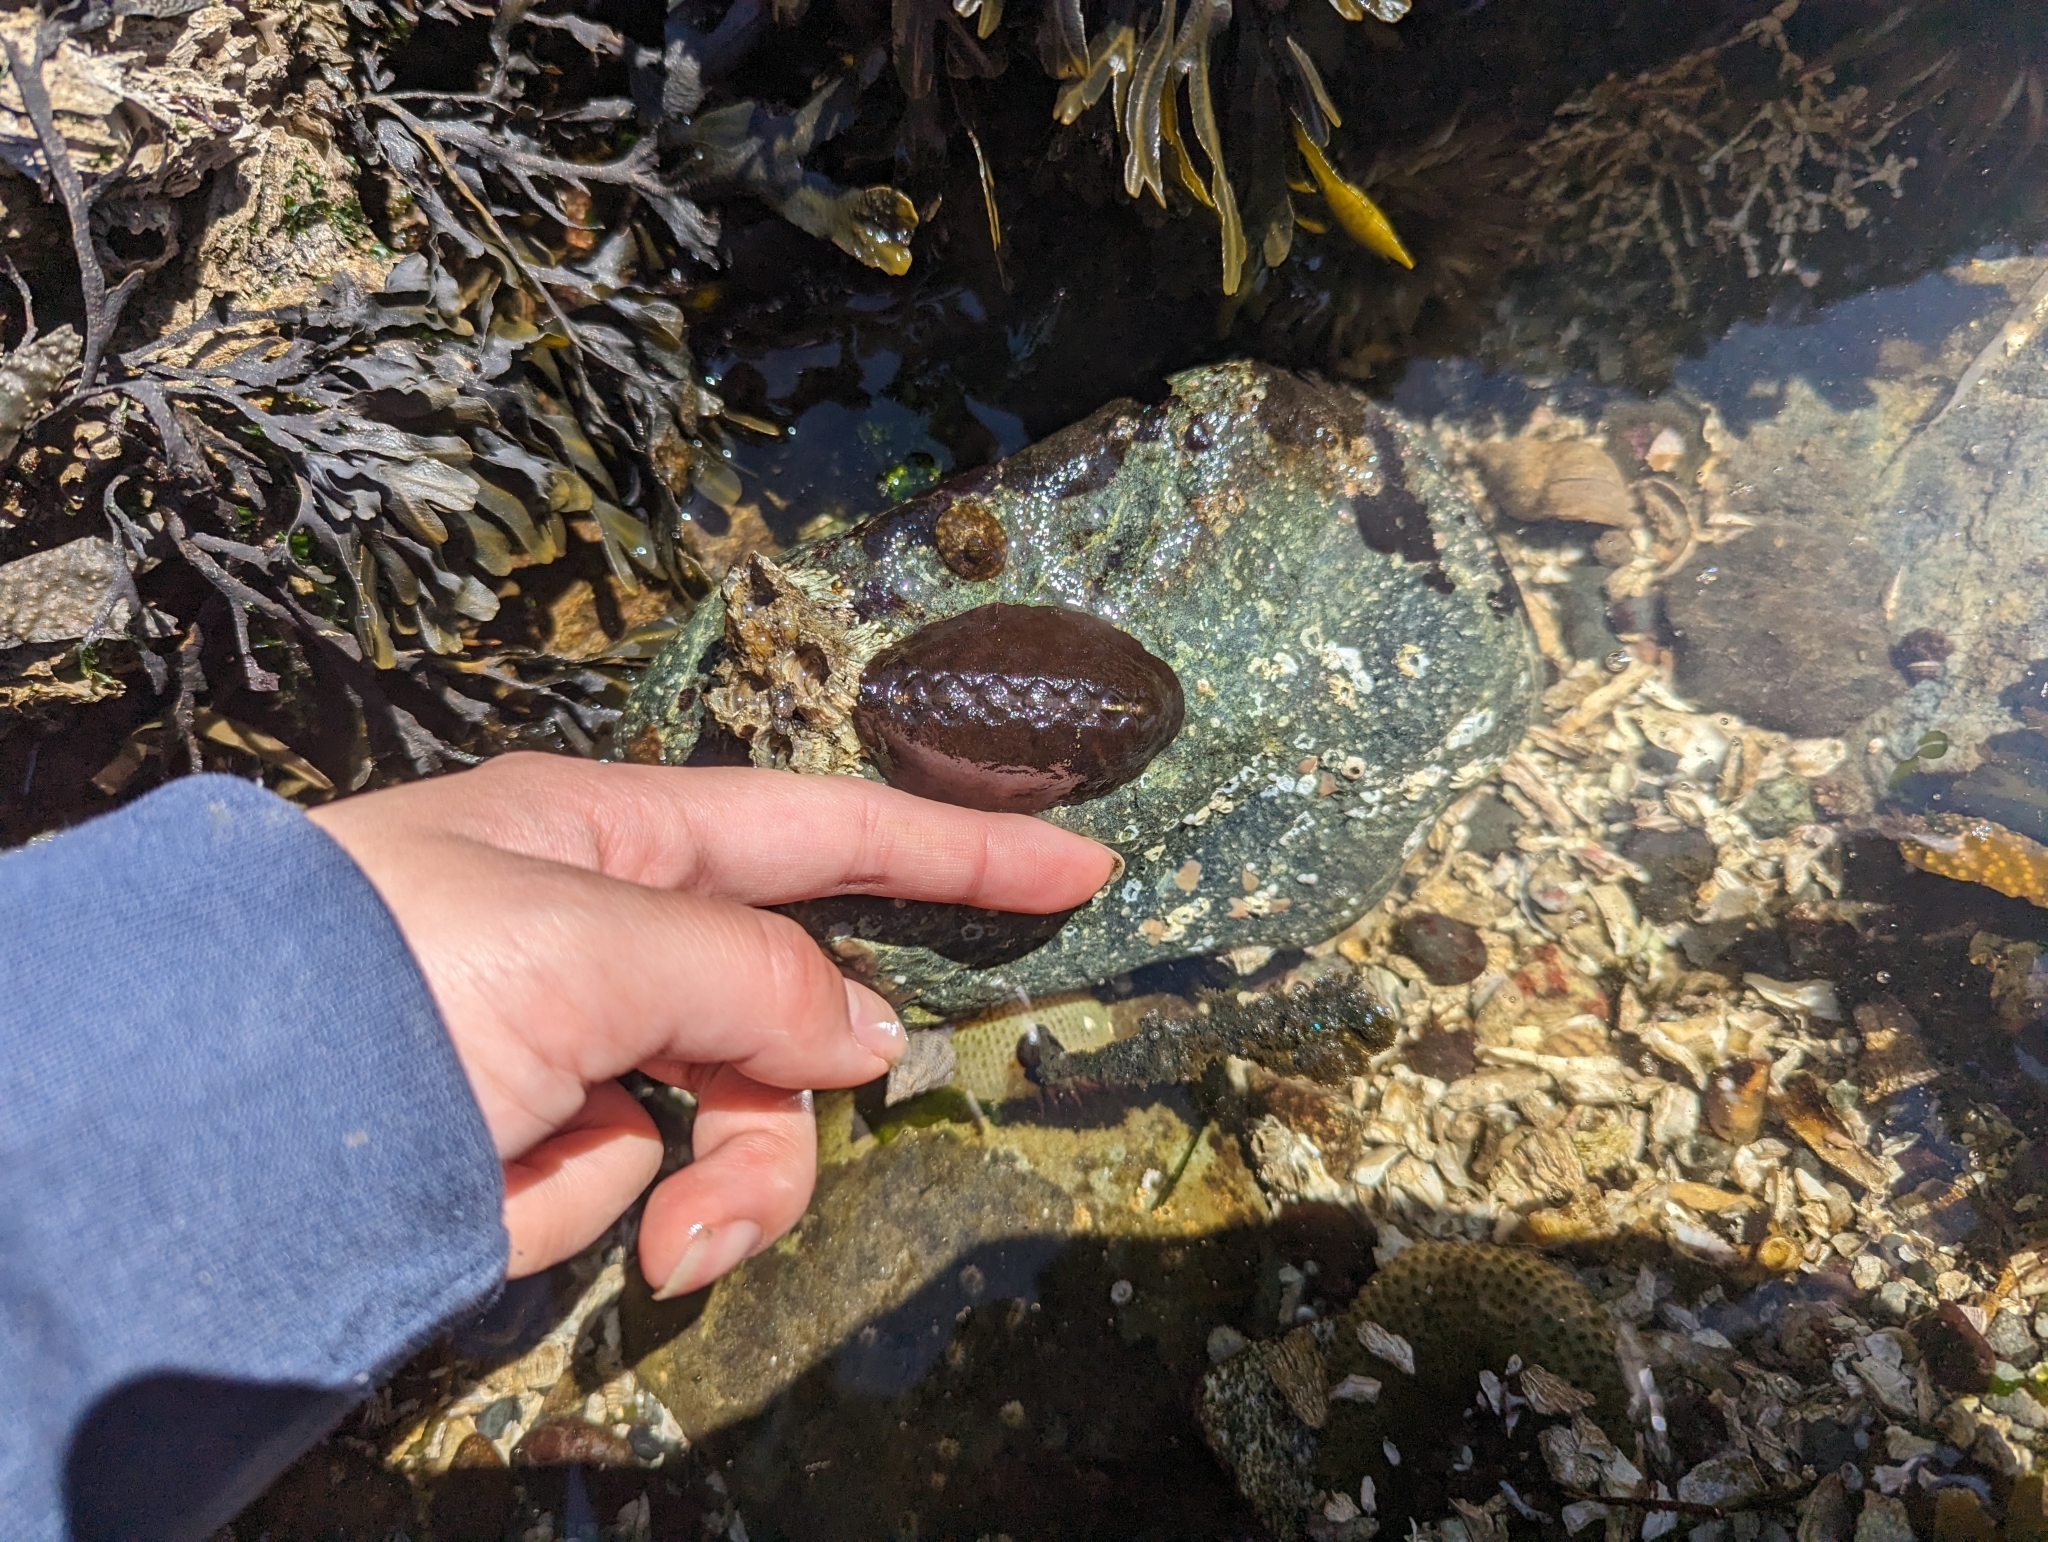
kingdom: Animalia
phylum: Mollusca
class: Polyplacophora
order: Chitonida
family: Mopaliidae
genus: Katharina
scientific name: Katharina tunicata
